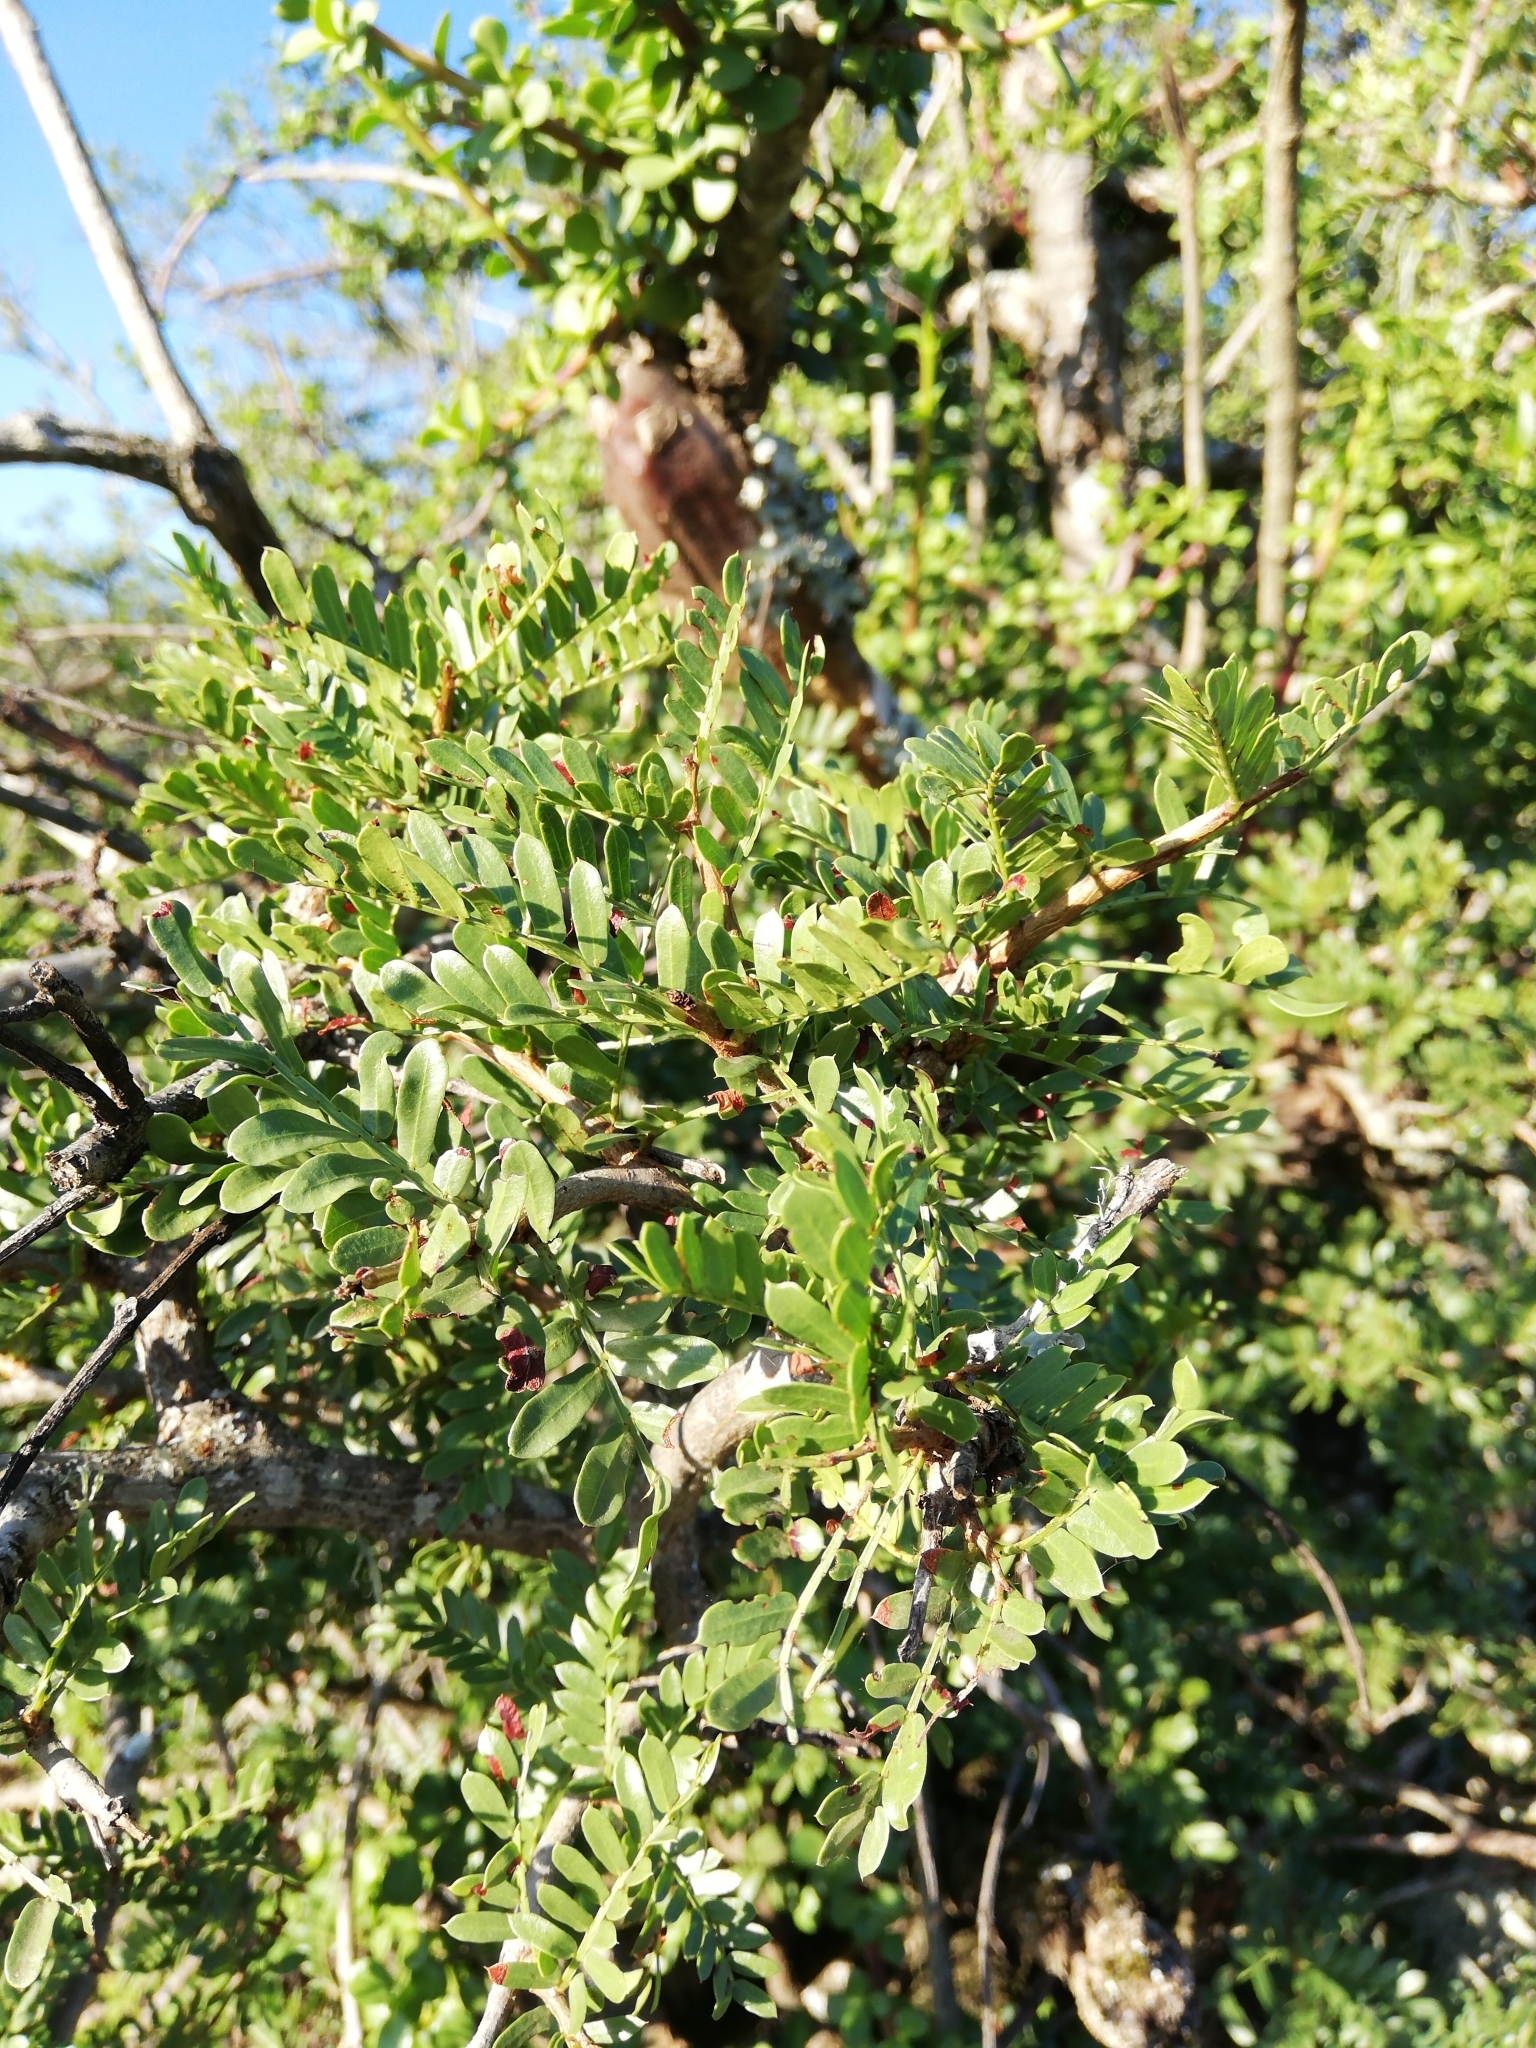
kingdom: Plantae
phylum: Tracheophyta
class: Magnoliopsida
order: Fabales
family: Fabaceae
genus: Schotia
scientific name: Schotia afra
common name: Hottentot's bean
